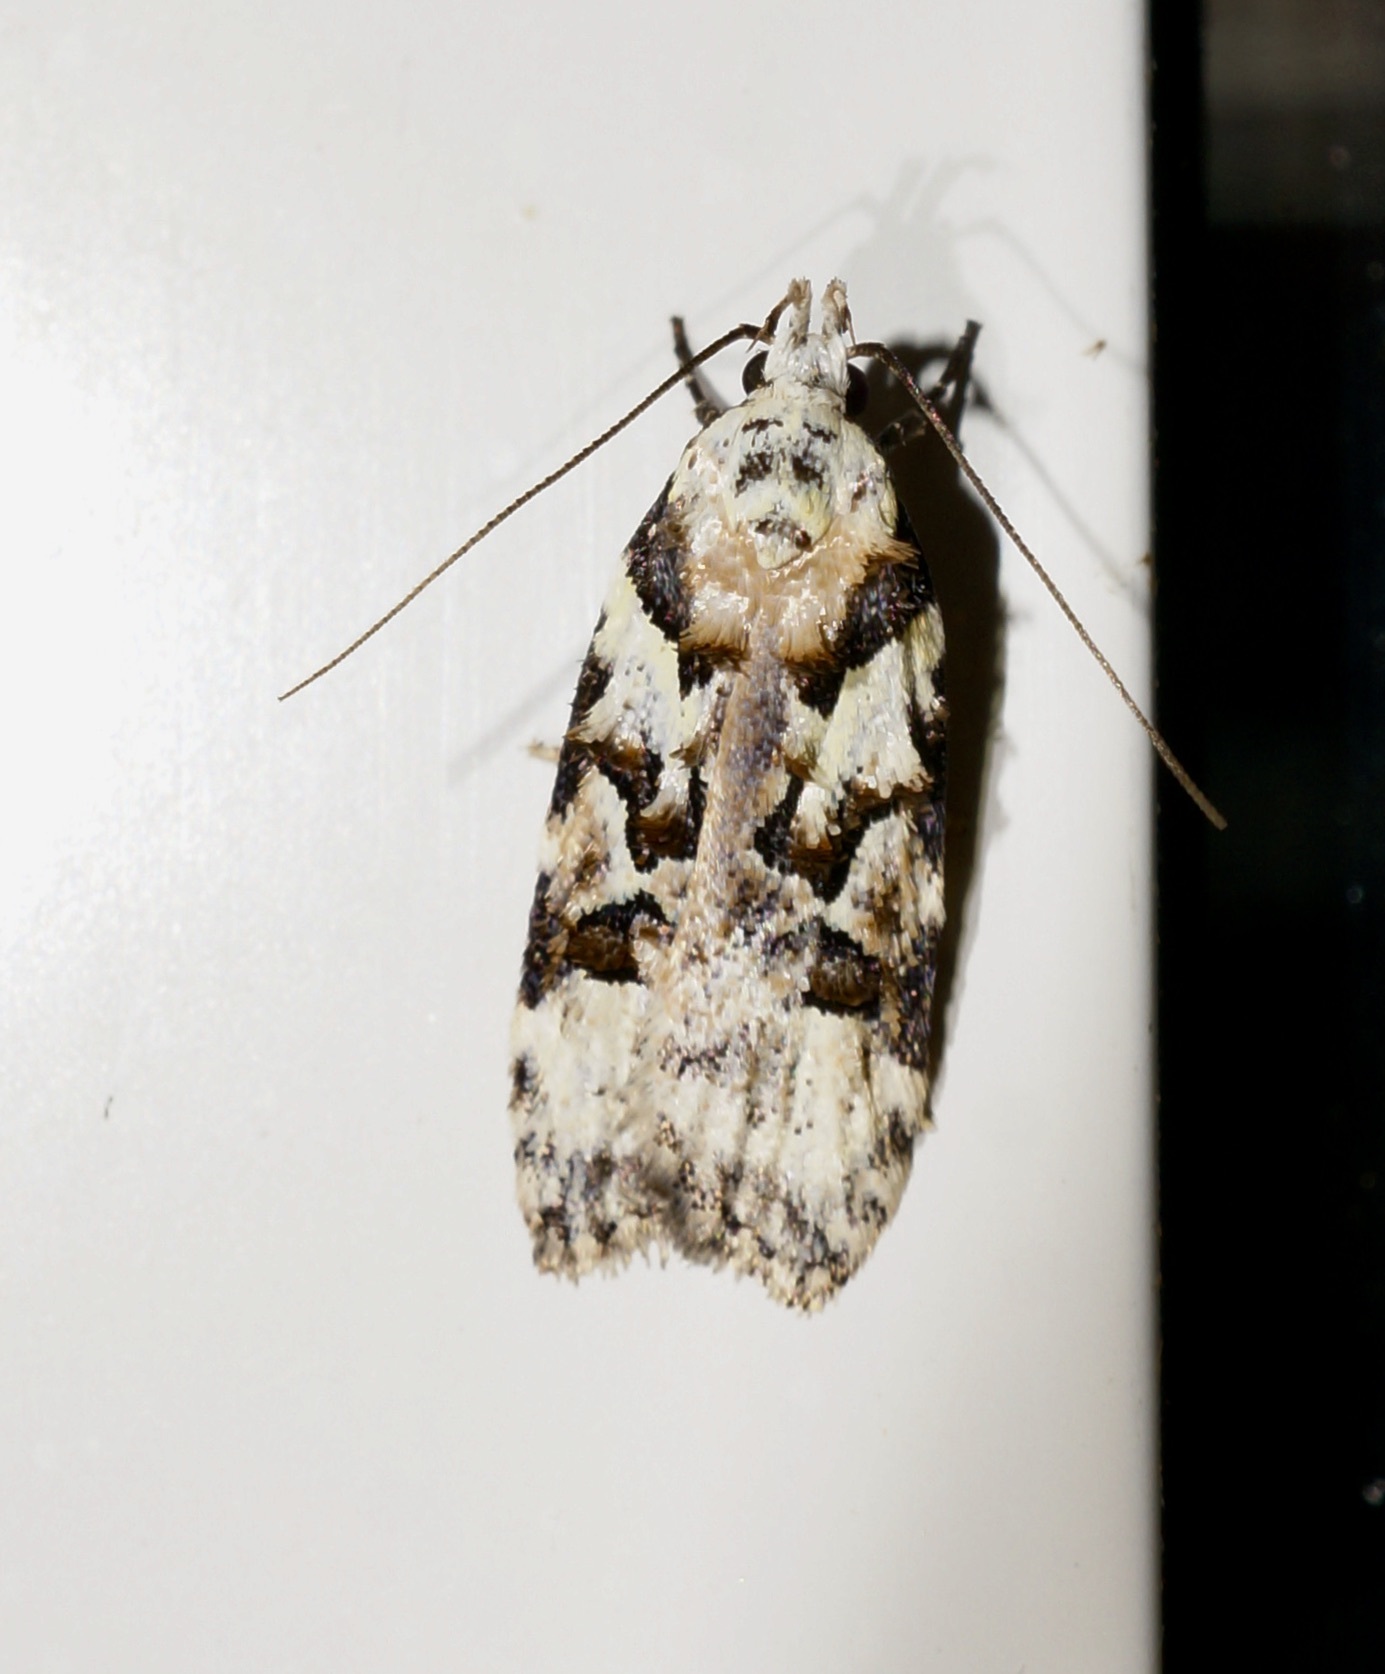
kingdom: Animalia
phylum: Arthropoda
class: Insecta
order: Lepidoptera
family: Oecophoridae
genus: Izatha
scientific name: Izatha epiphanes
